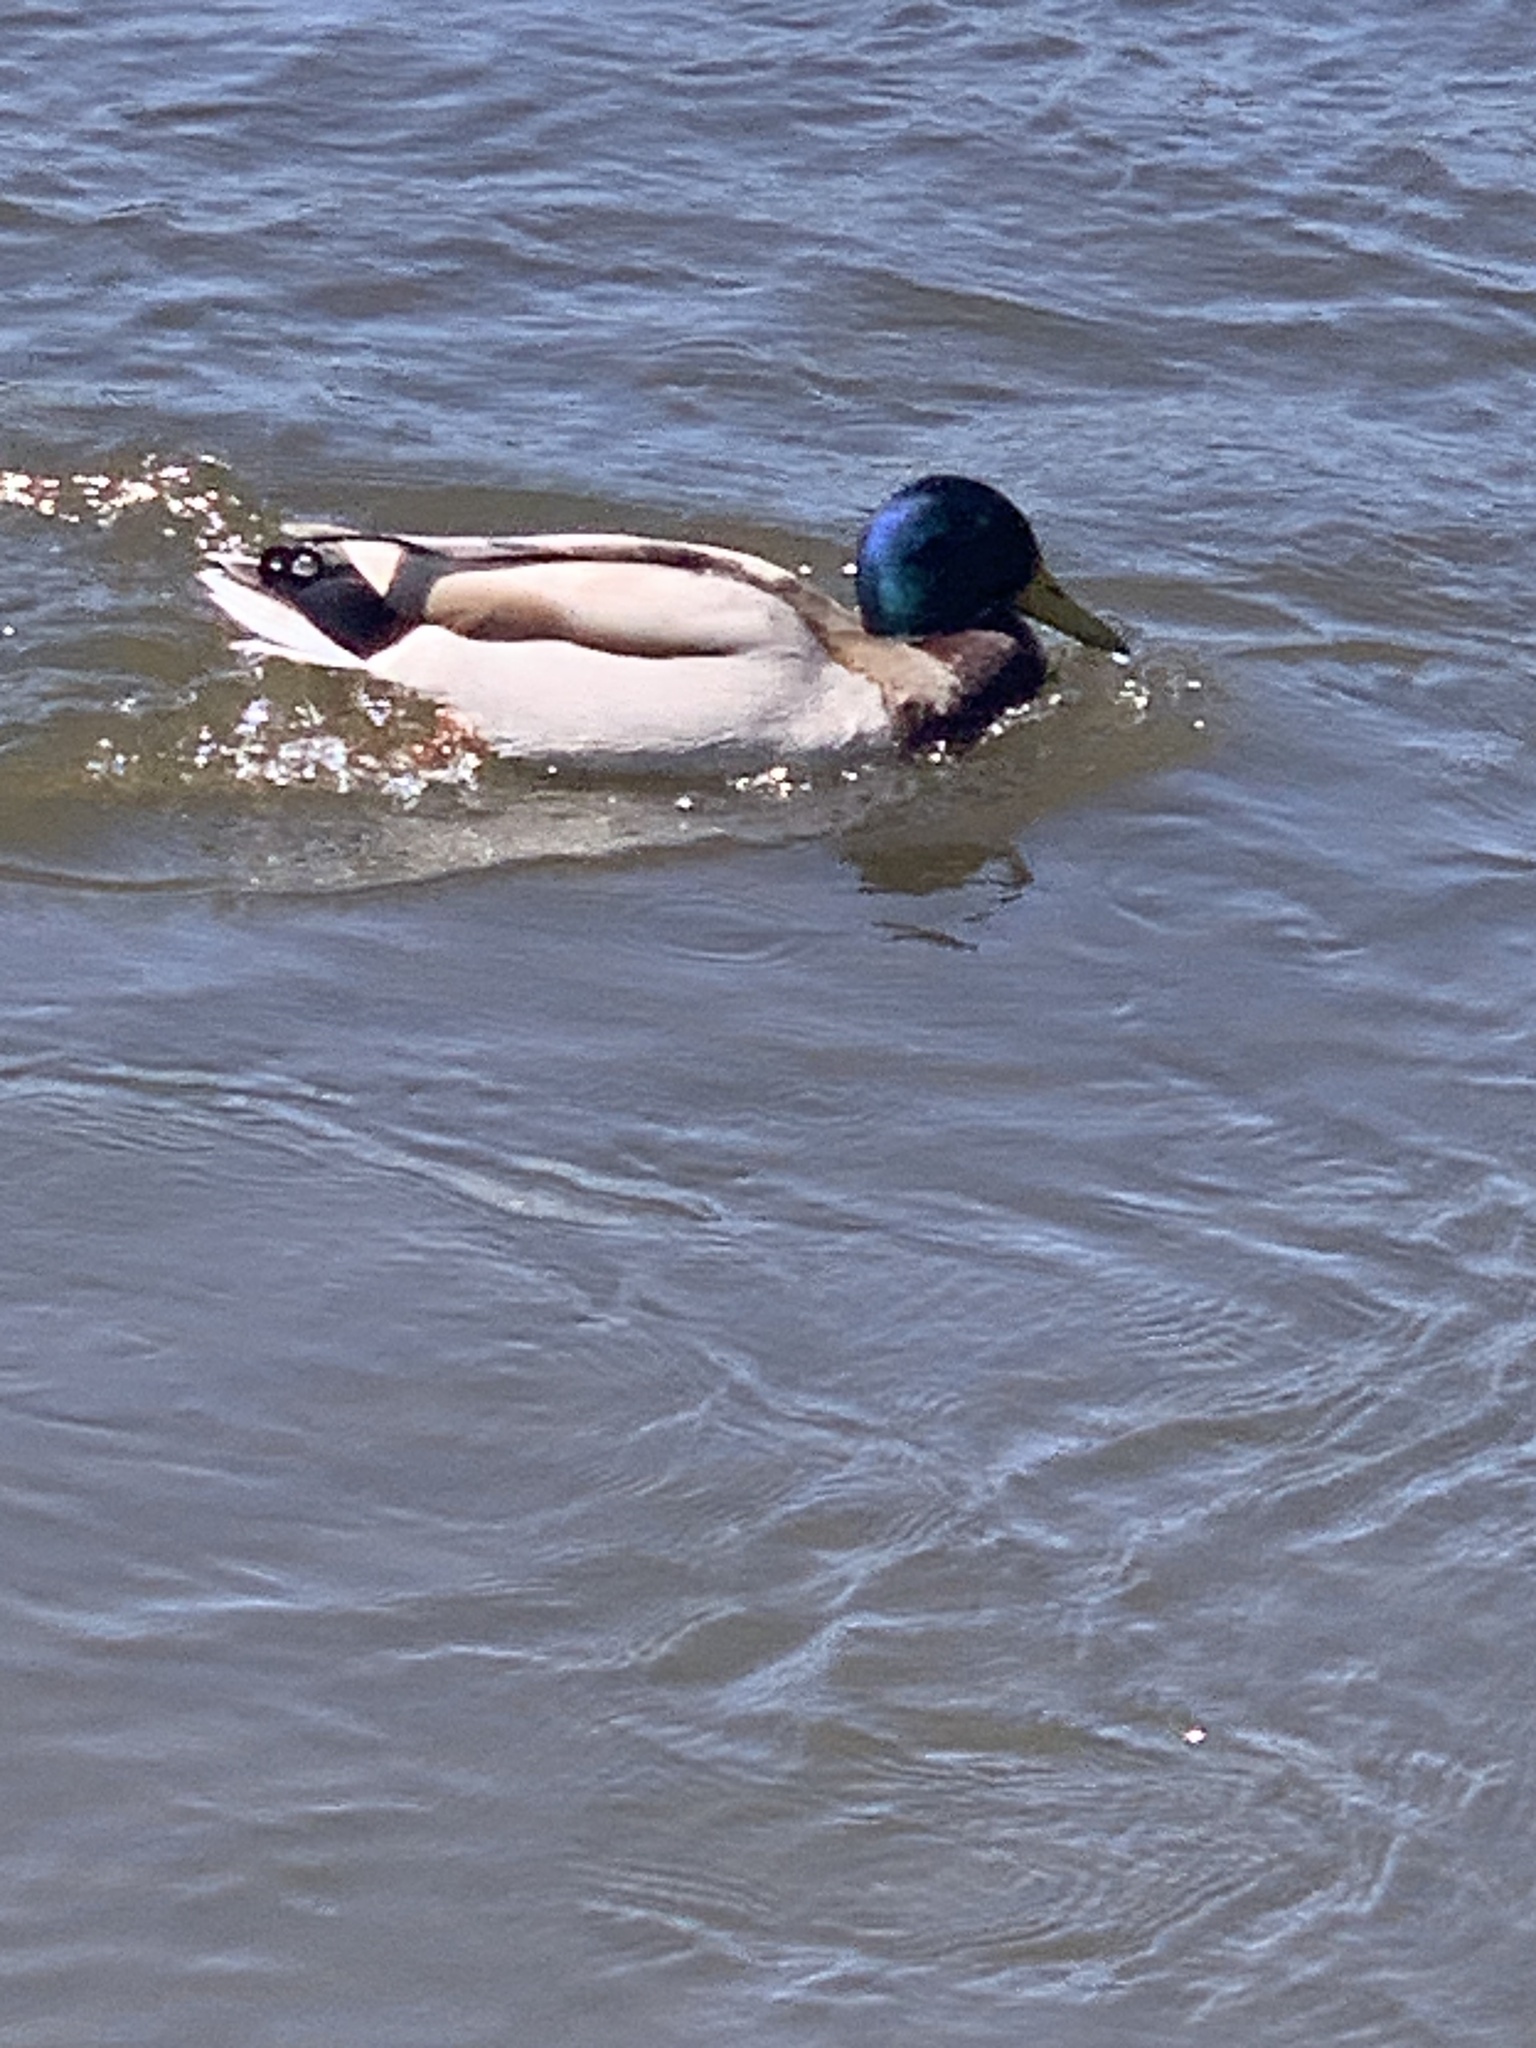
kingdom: Animalia
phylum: Chordata
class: Aves
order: Anseriformes
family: Anatidae
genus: Anas
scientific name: Anas platyrhynchos
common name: Mallard
